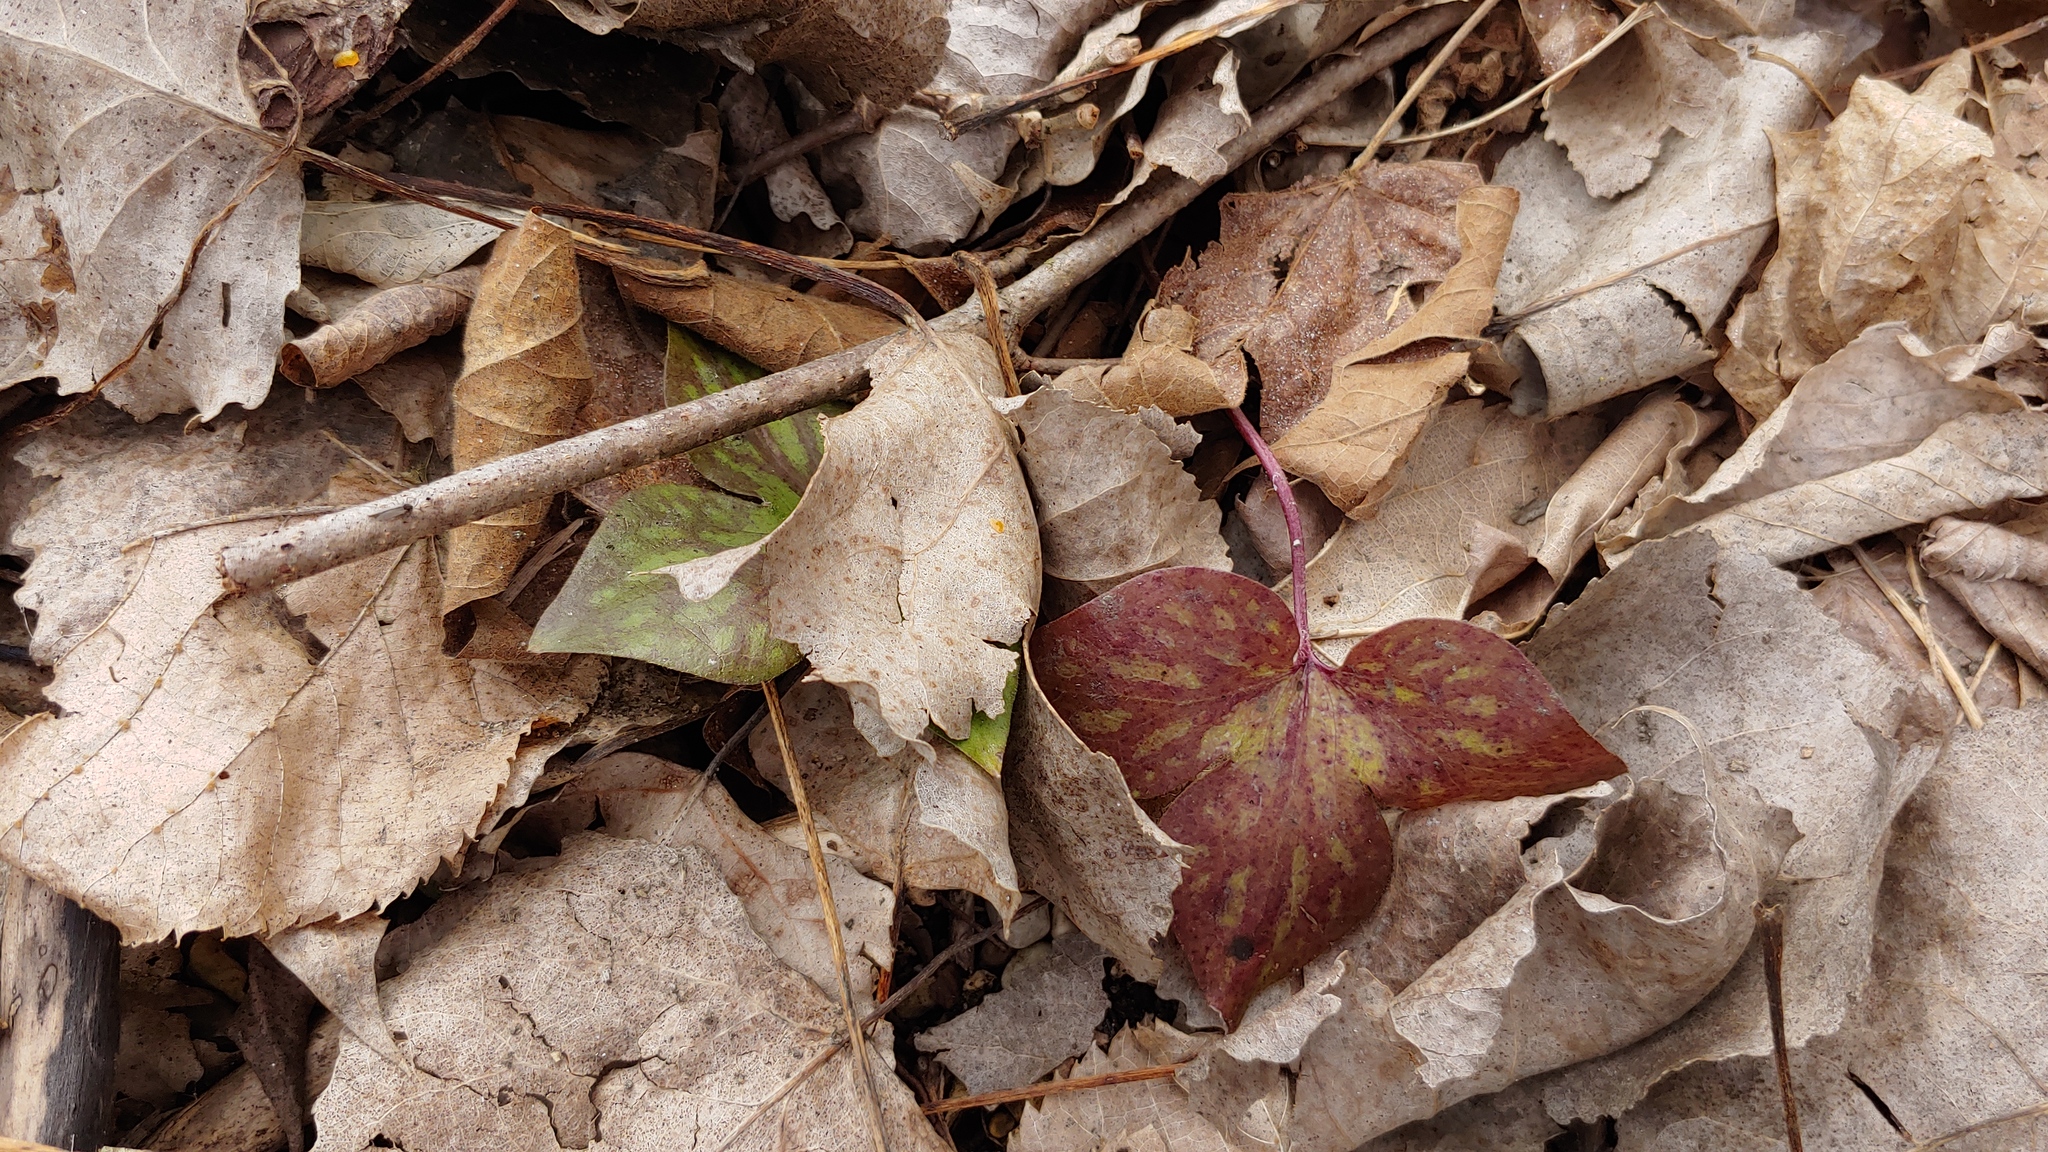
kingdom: Plantae
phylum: Tracheophyta
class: Magnoliopsida
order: Ranunculales
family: Ranunculaceae
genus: Hepatica
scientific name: Hepatica acutiloba
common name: Sharp-lobed hepatica
